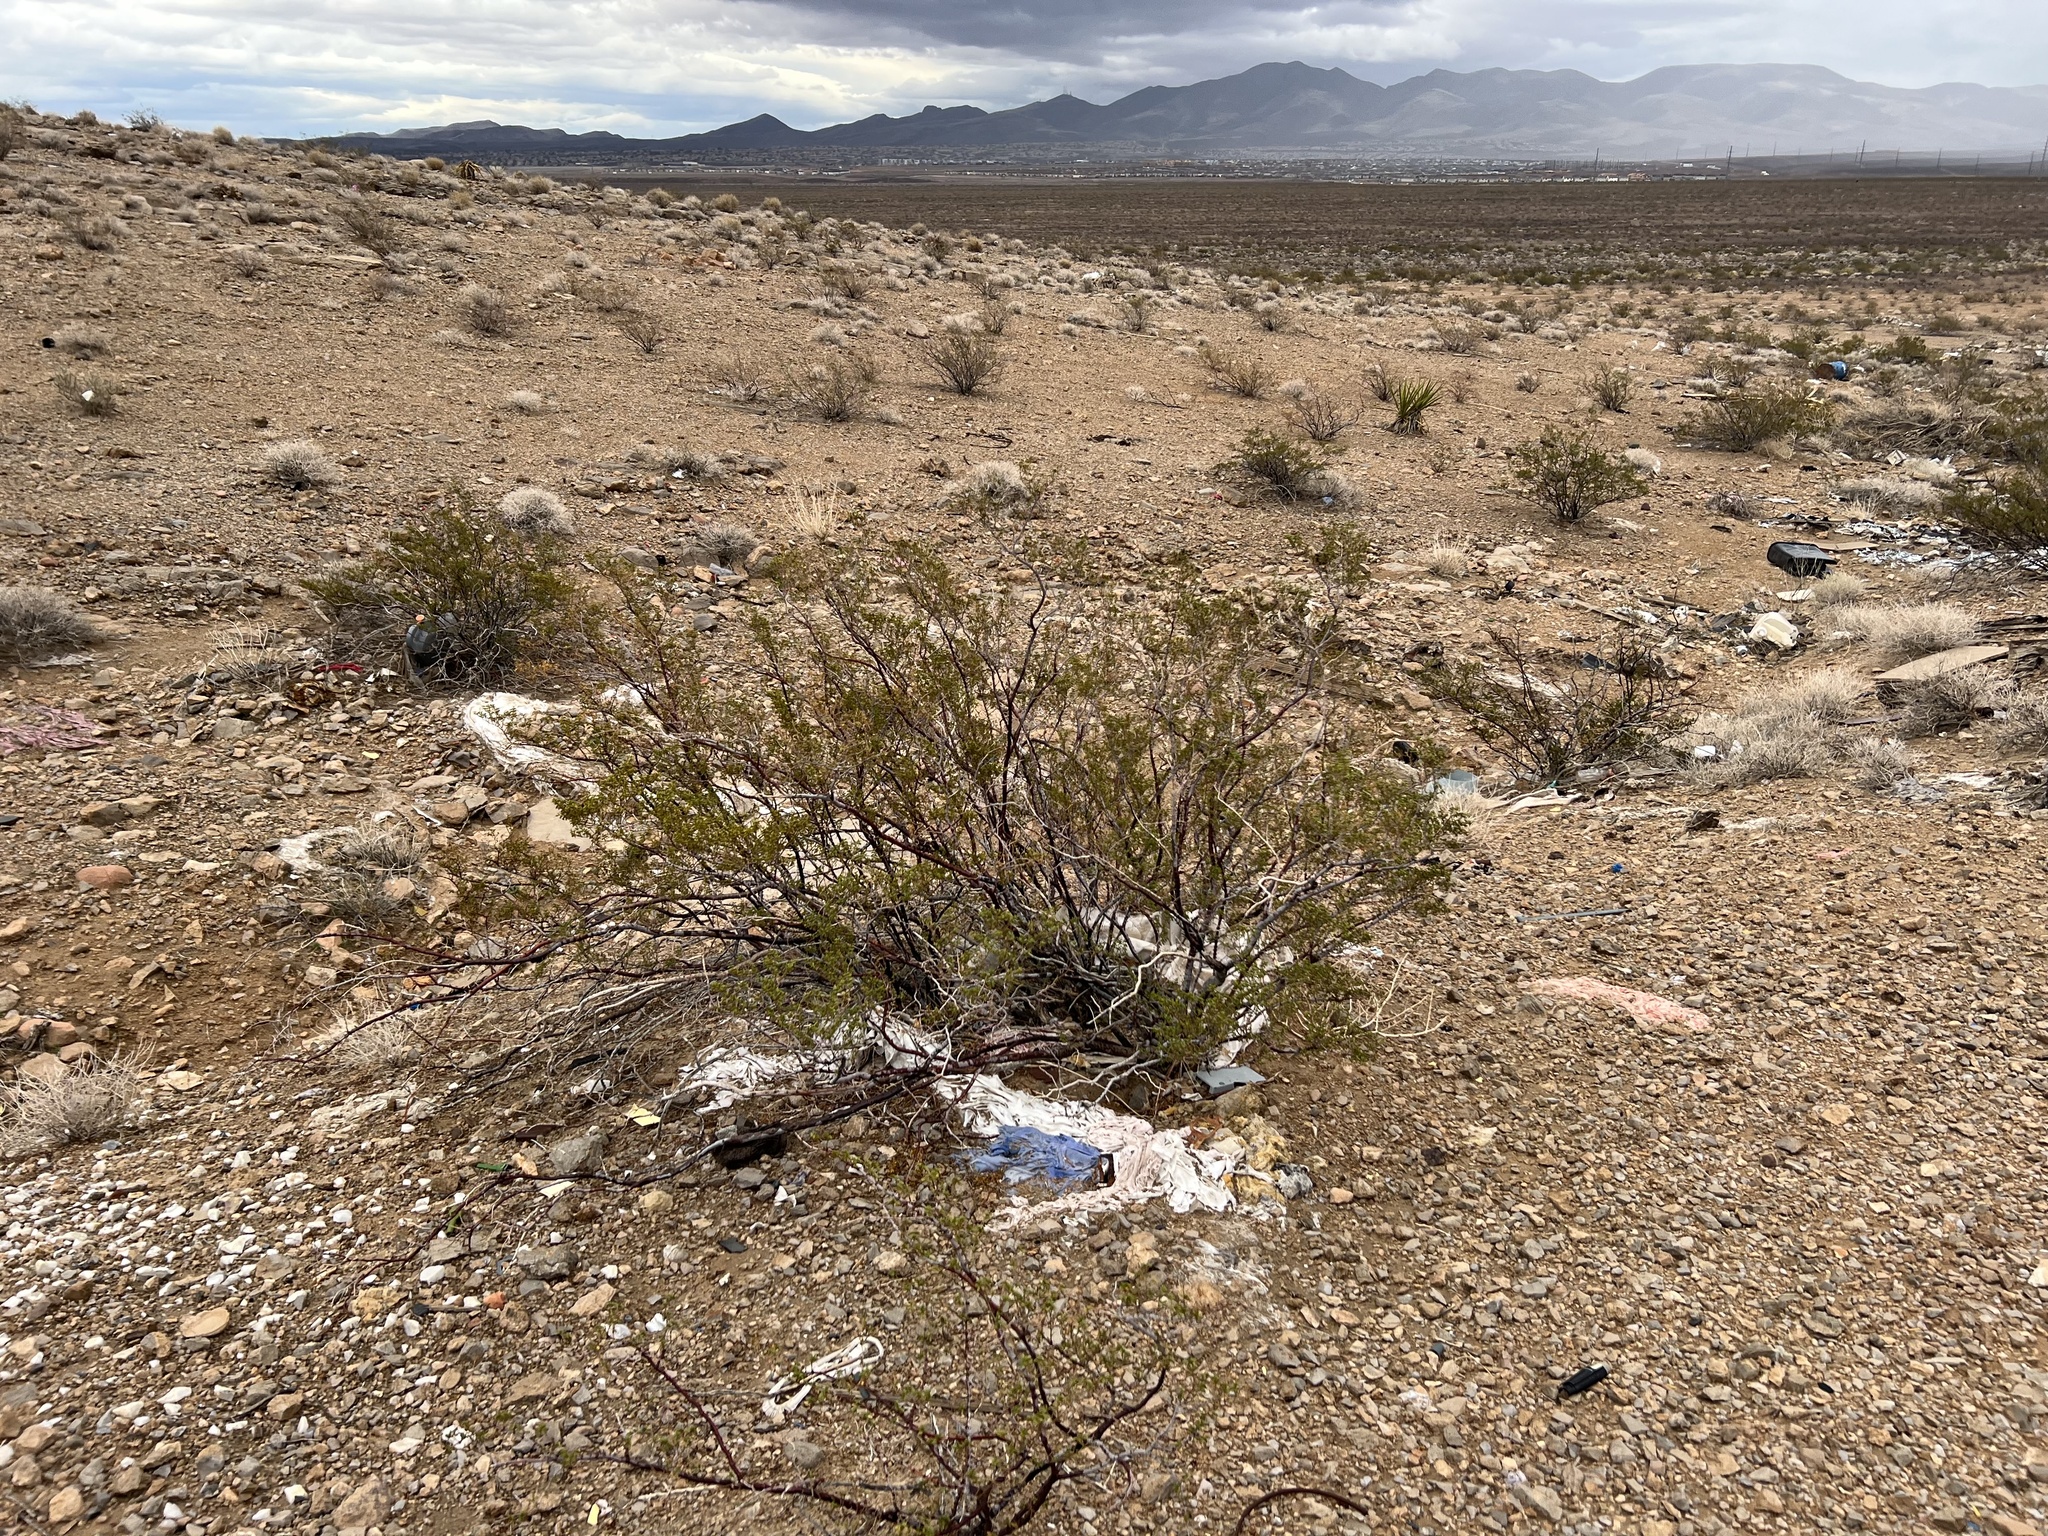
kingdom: Plantae
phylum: Tracheophyta
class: Magnoliopsida
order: Zygophyllales
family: Zygophyllaceae
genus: Larrea
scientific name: Larrea tridentata
